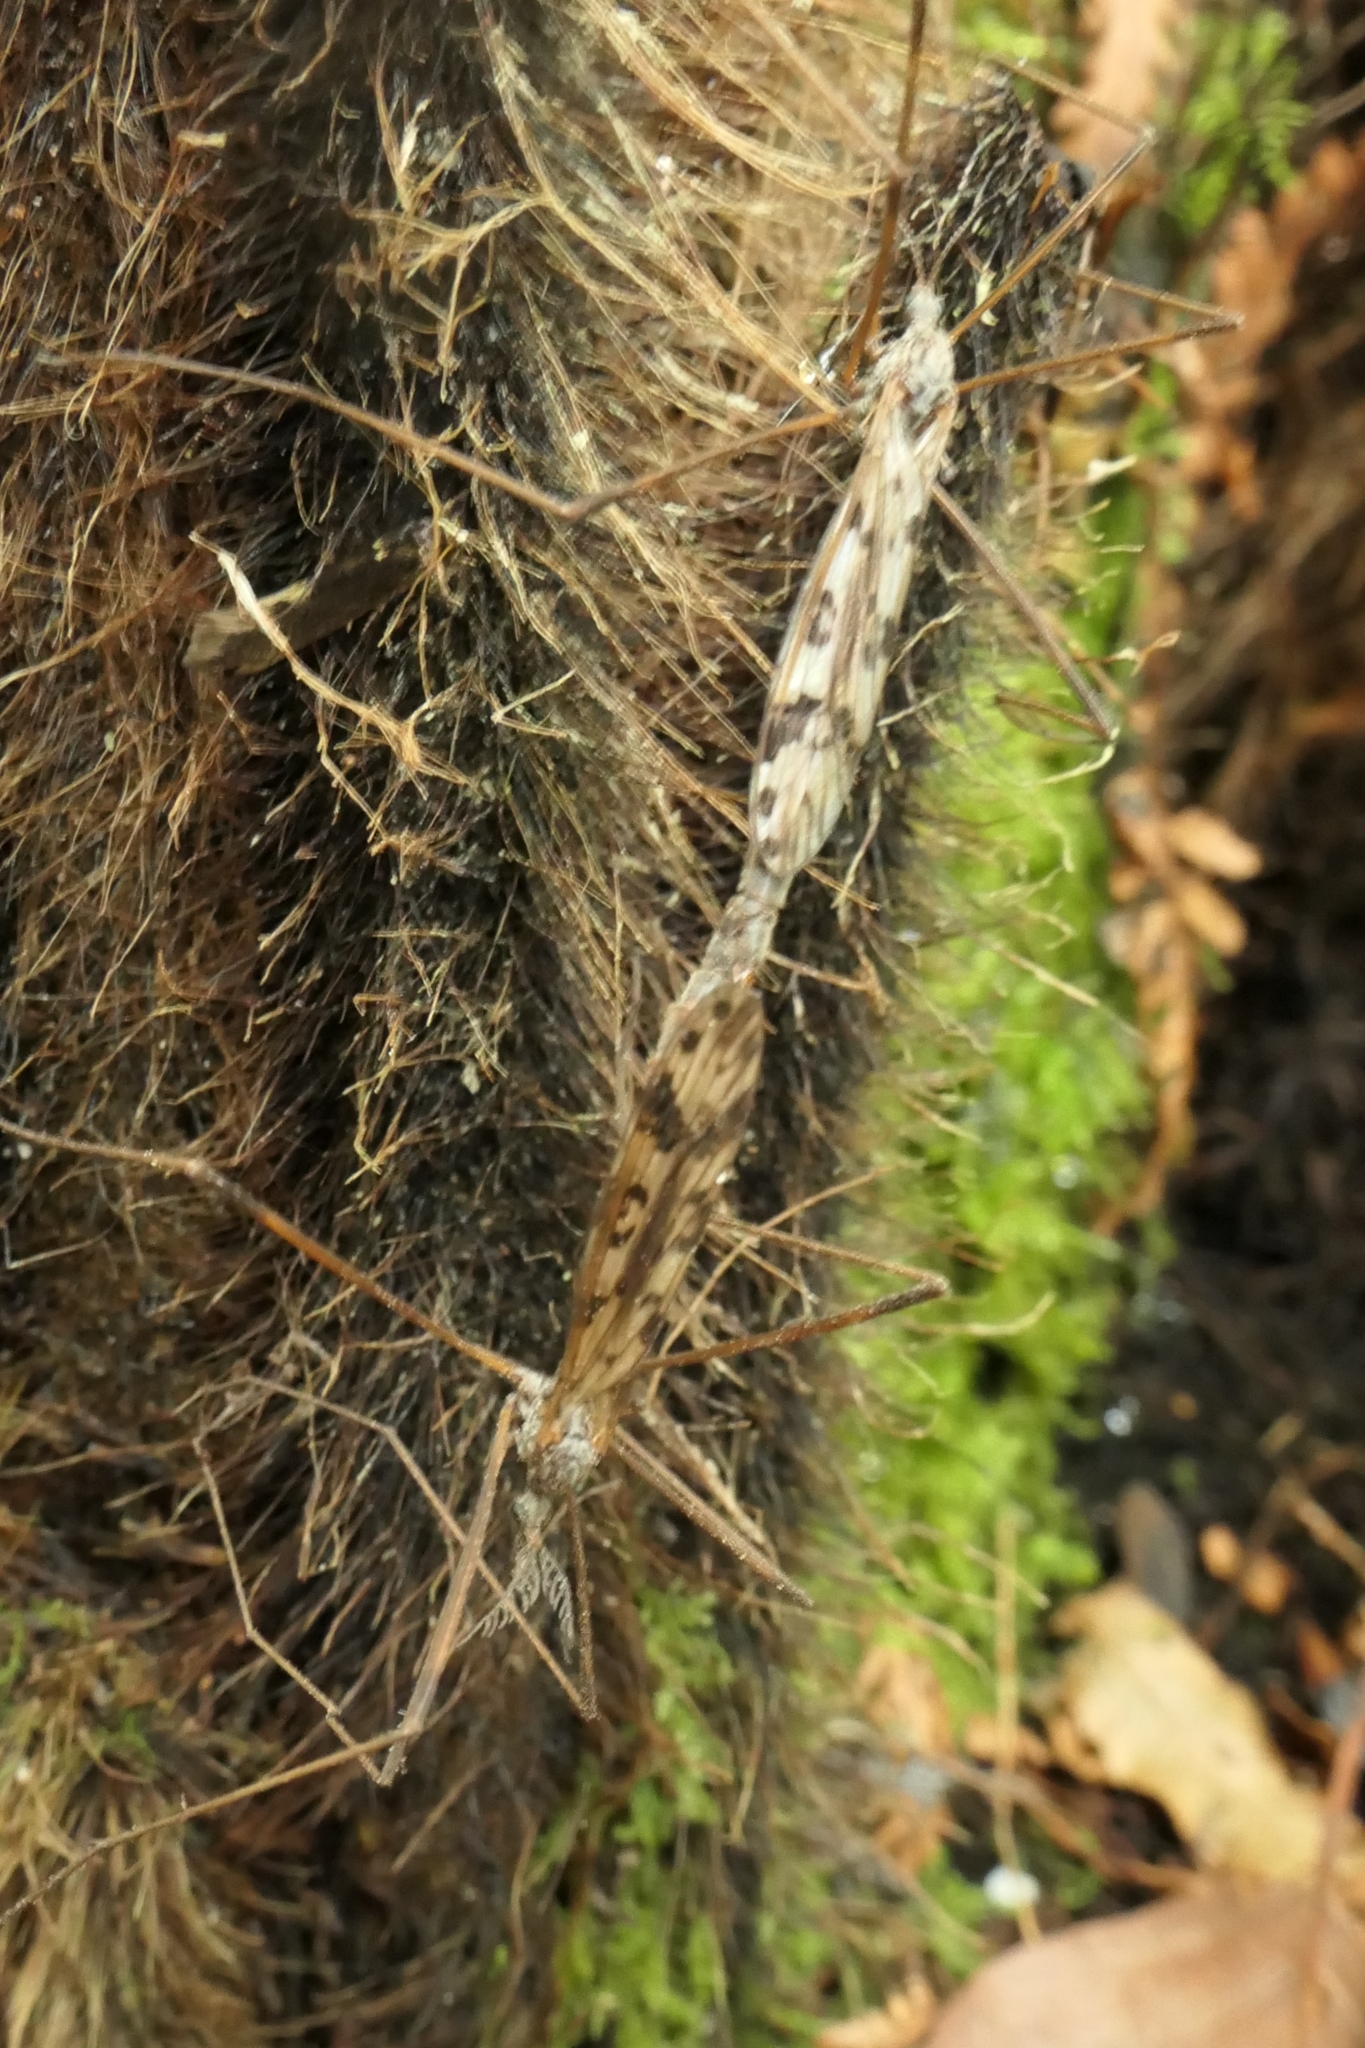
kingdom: Animalia
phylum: Arthropoda
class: Insecta
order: Diptera
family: Limoniidae
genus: Gynoplistia
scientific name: Gynoplistia notata
